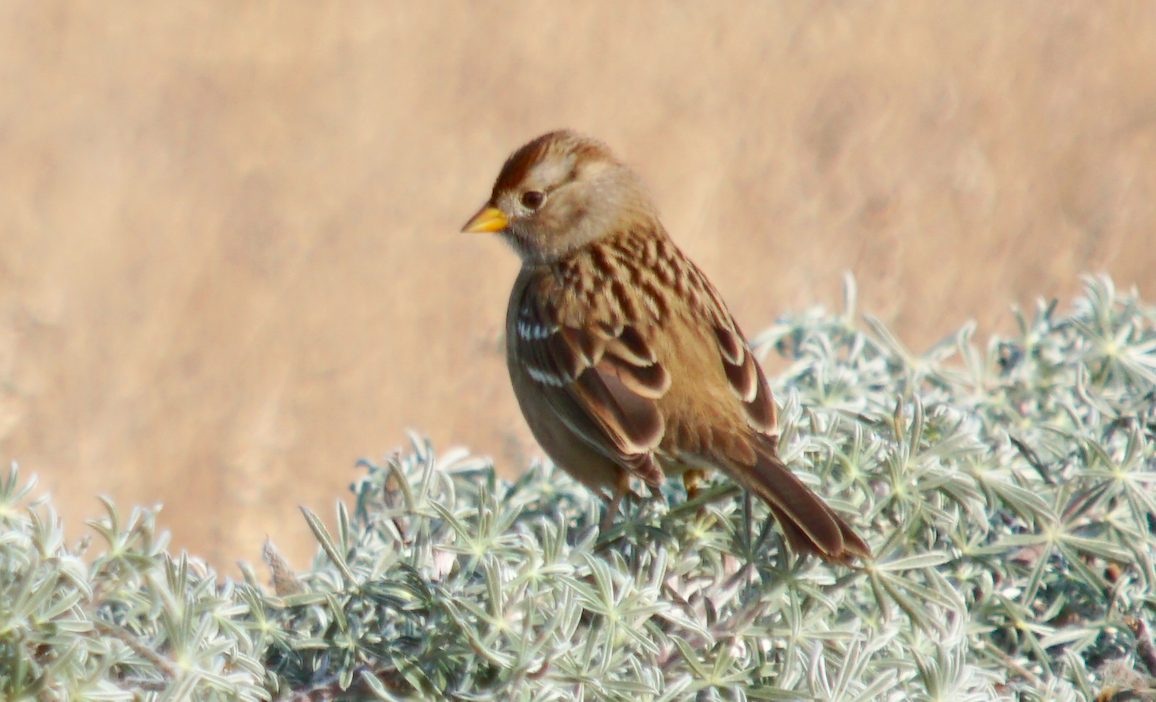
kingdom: Animalia
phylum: Chordata
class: Aves
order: Passeriformes
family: Passerellidae
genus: Zonotrichia
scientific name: Zonotrichia leucophrys
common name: White-crowned sparrow
